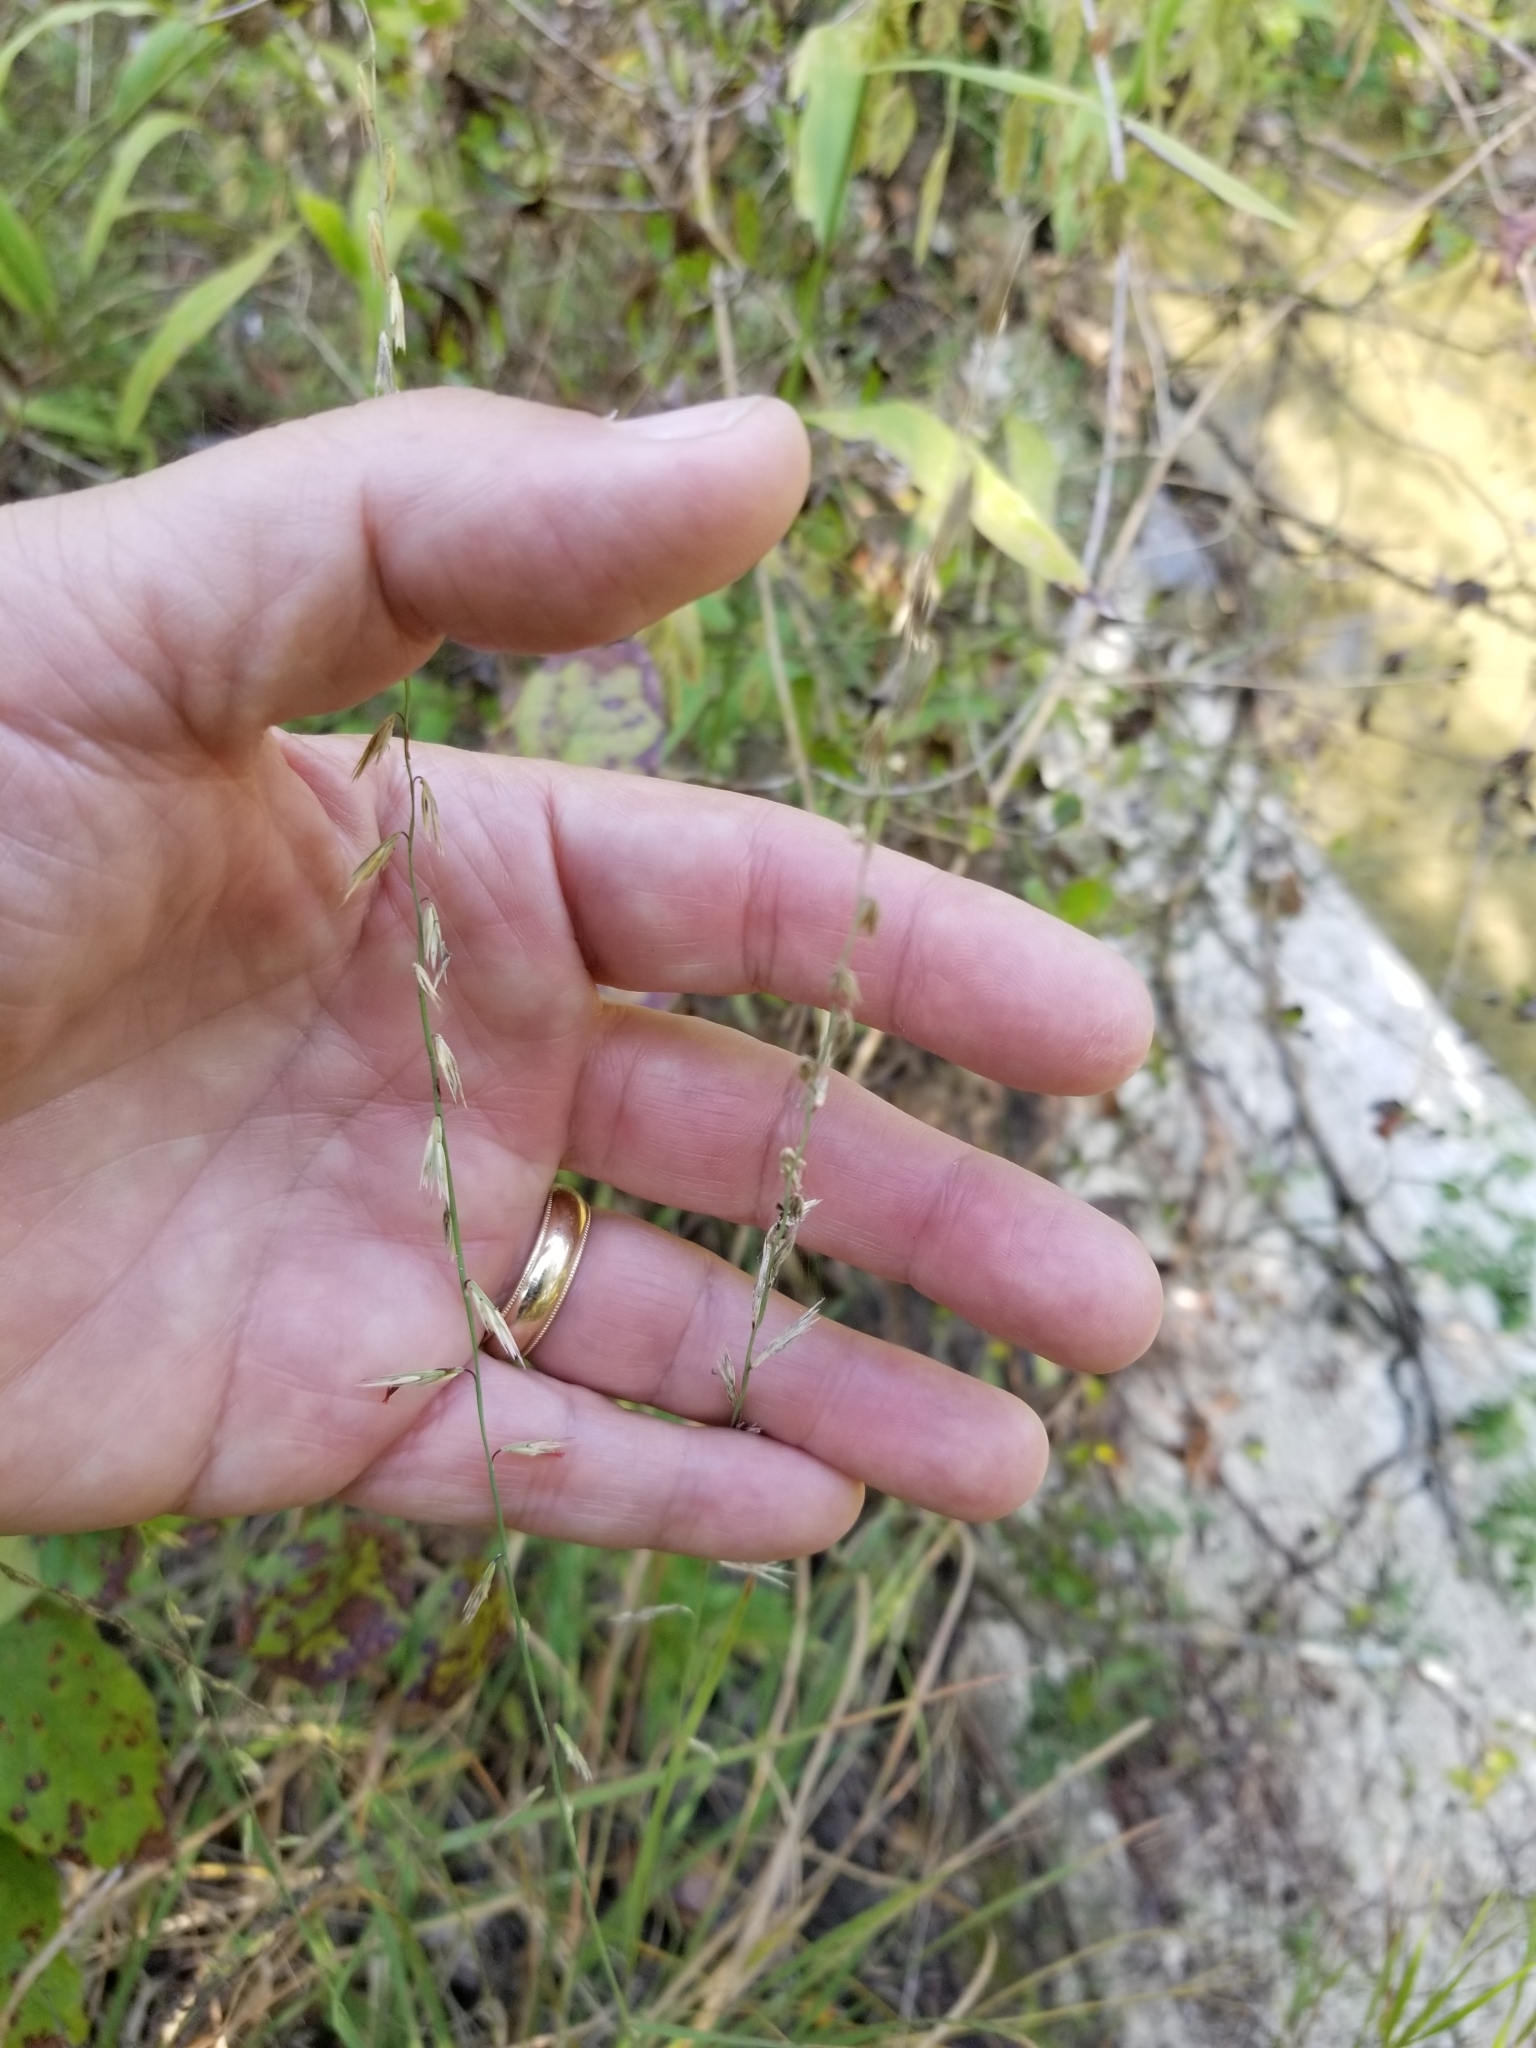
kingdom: Plantae
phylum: Tracheophyta
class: Liliopsida
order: Poales
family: Poaceae
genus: Bouteloua
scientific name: Bouteloua curtipendula
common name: Side-oats grama
